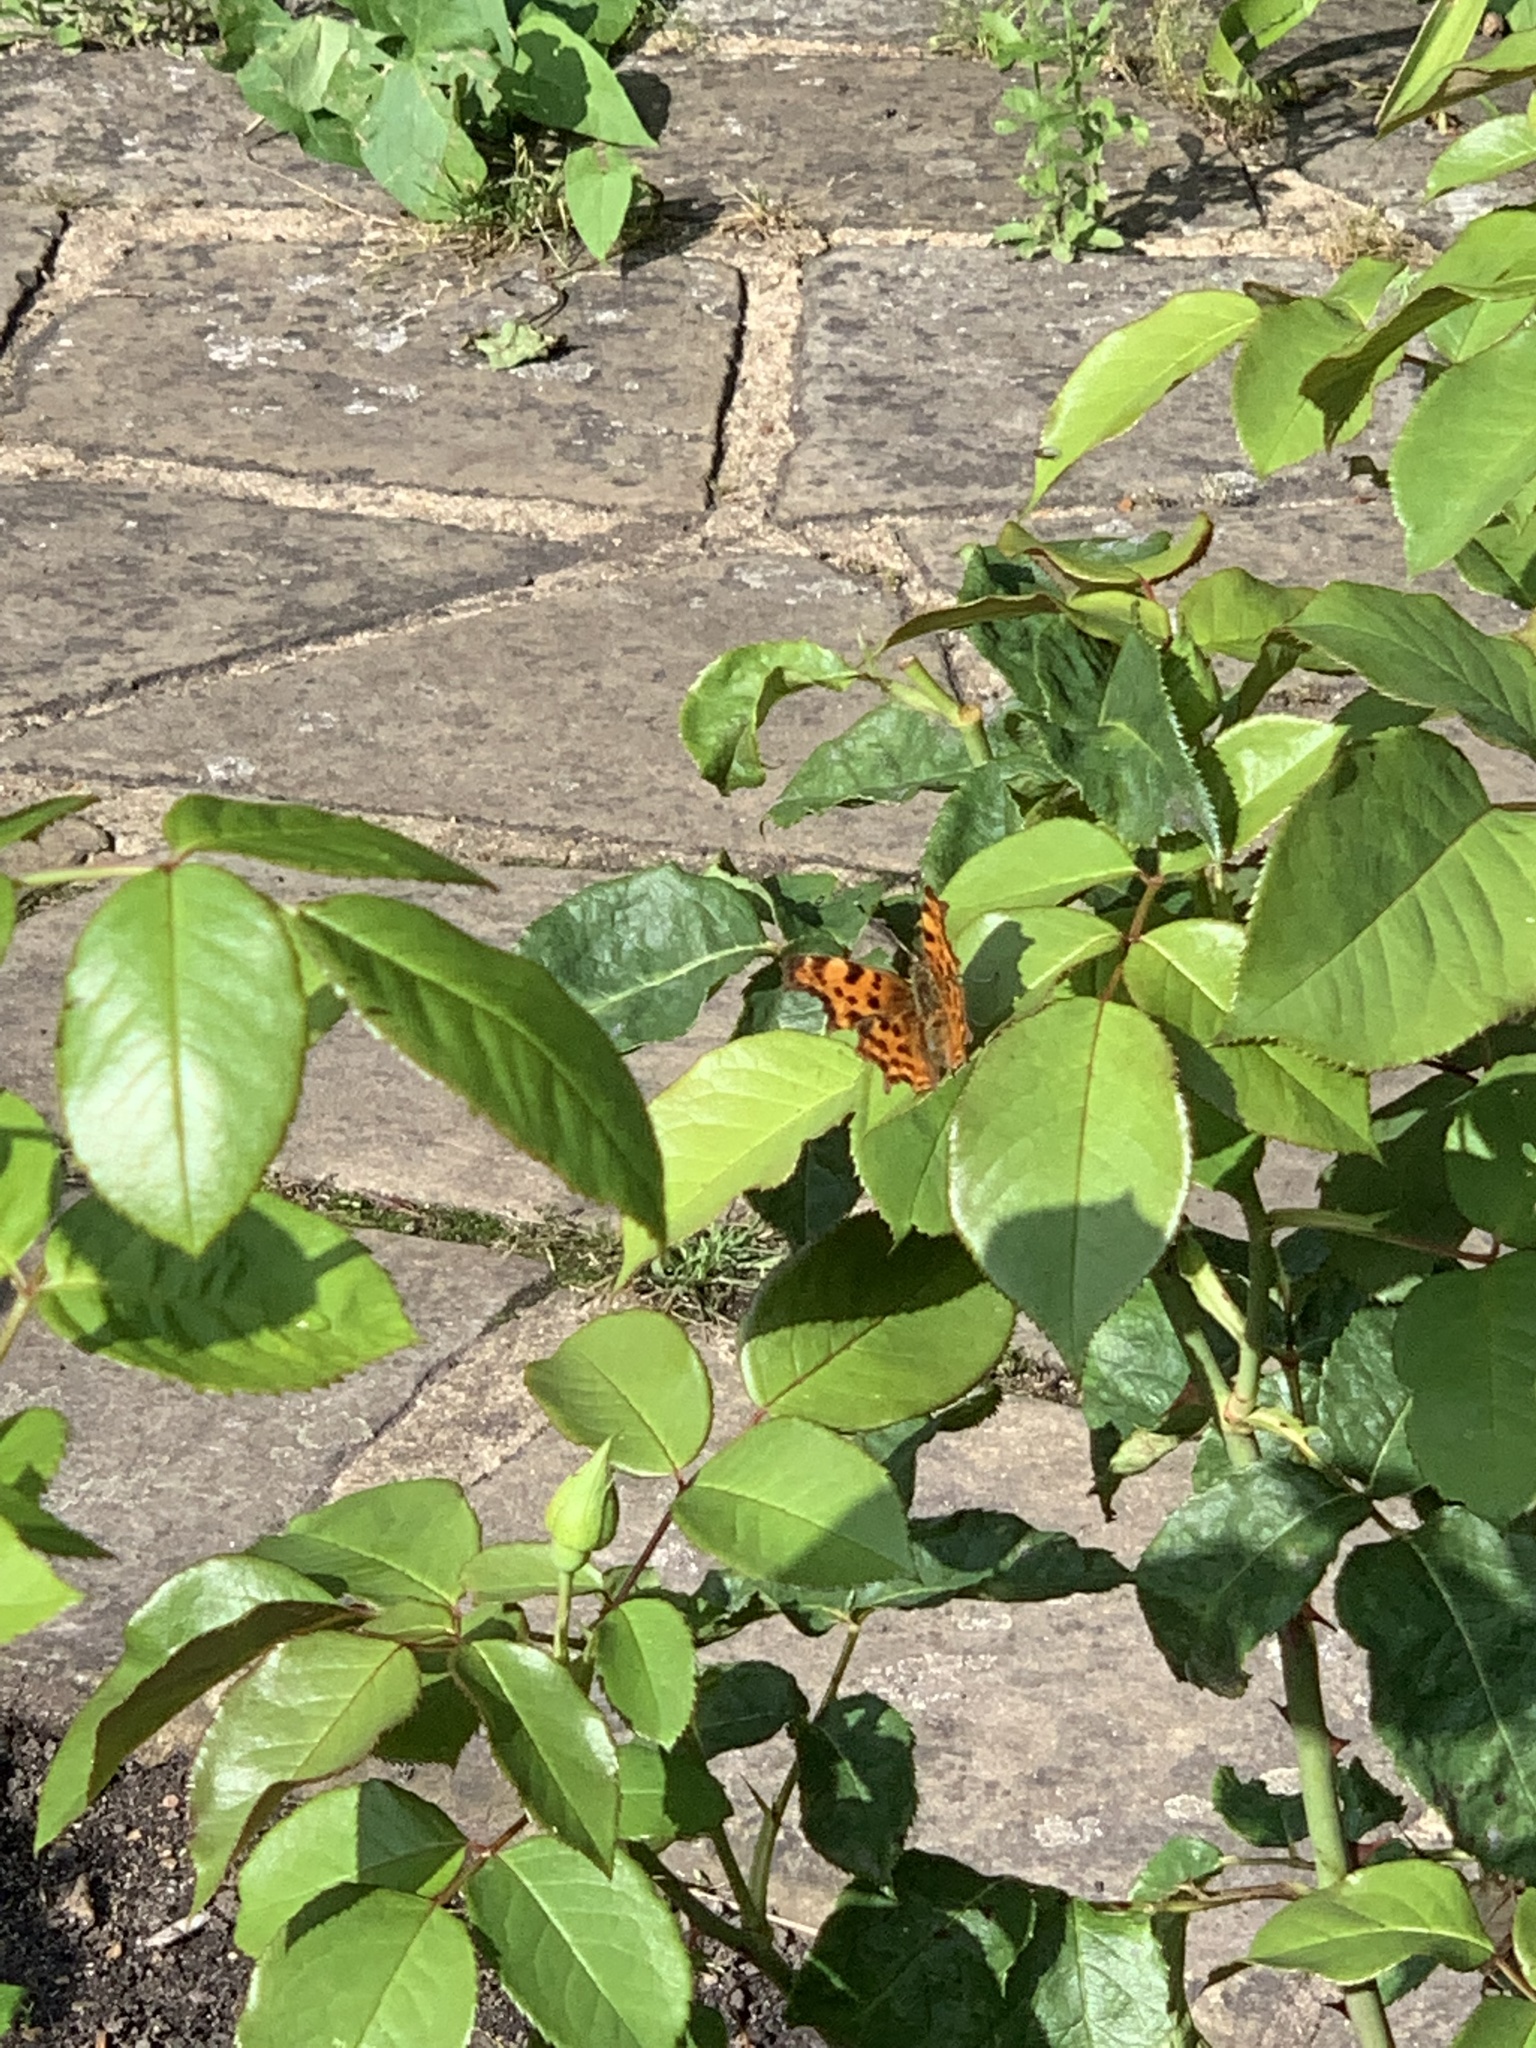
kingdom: Animalia
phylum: Arthropoda
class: Insecta
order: Lepidoptera
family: Nymphalidae
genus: Polygonia
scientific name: Polygonia c-album
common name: Comma
